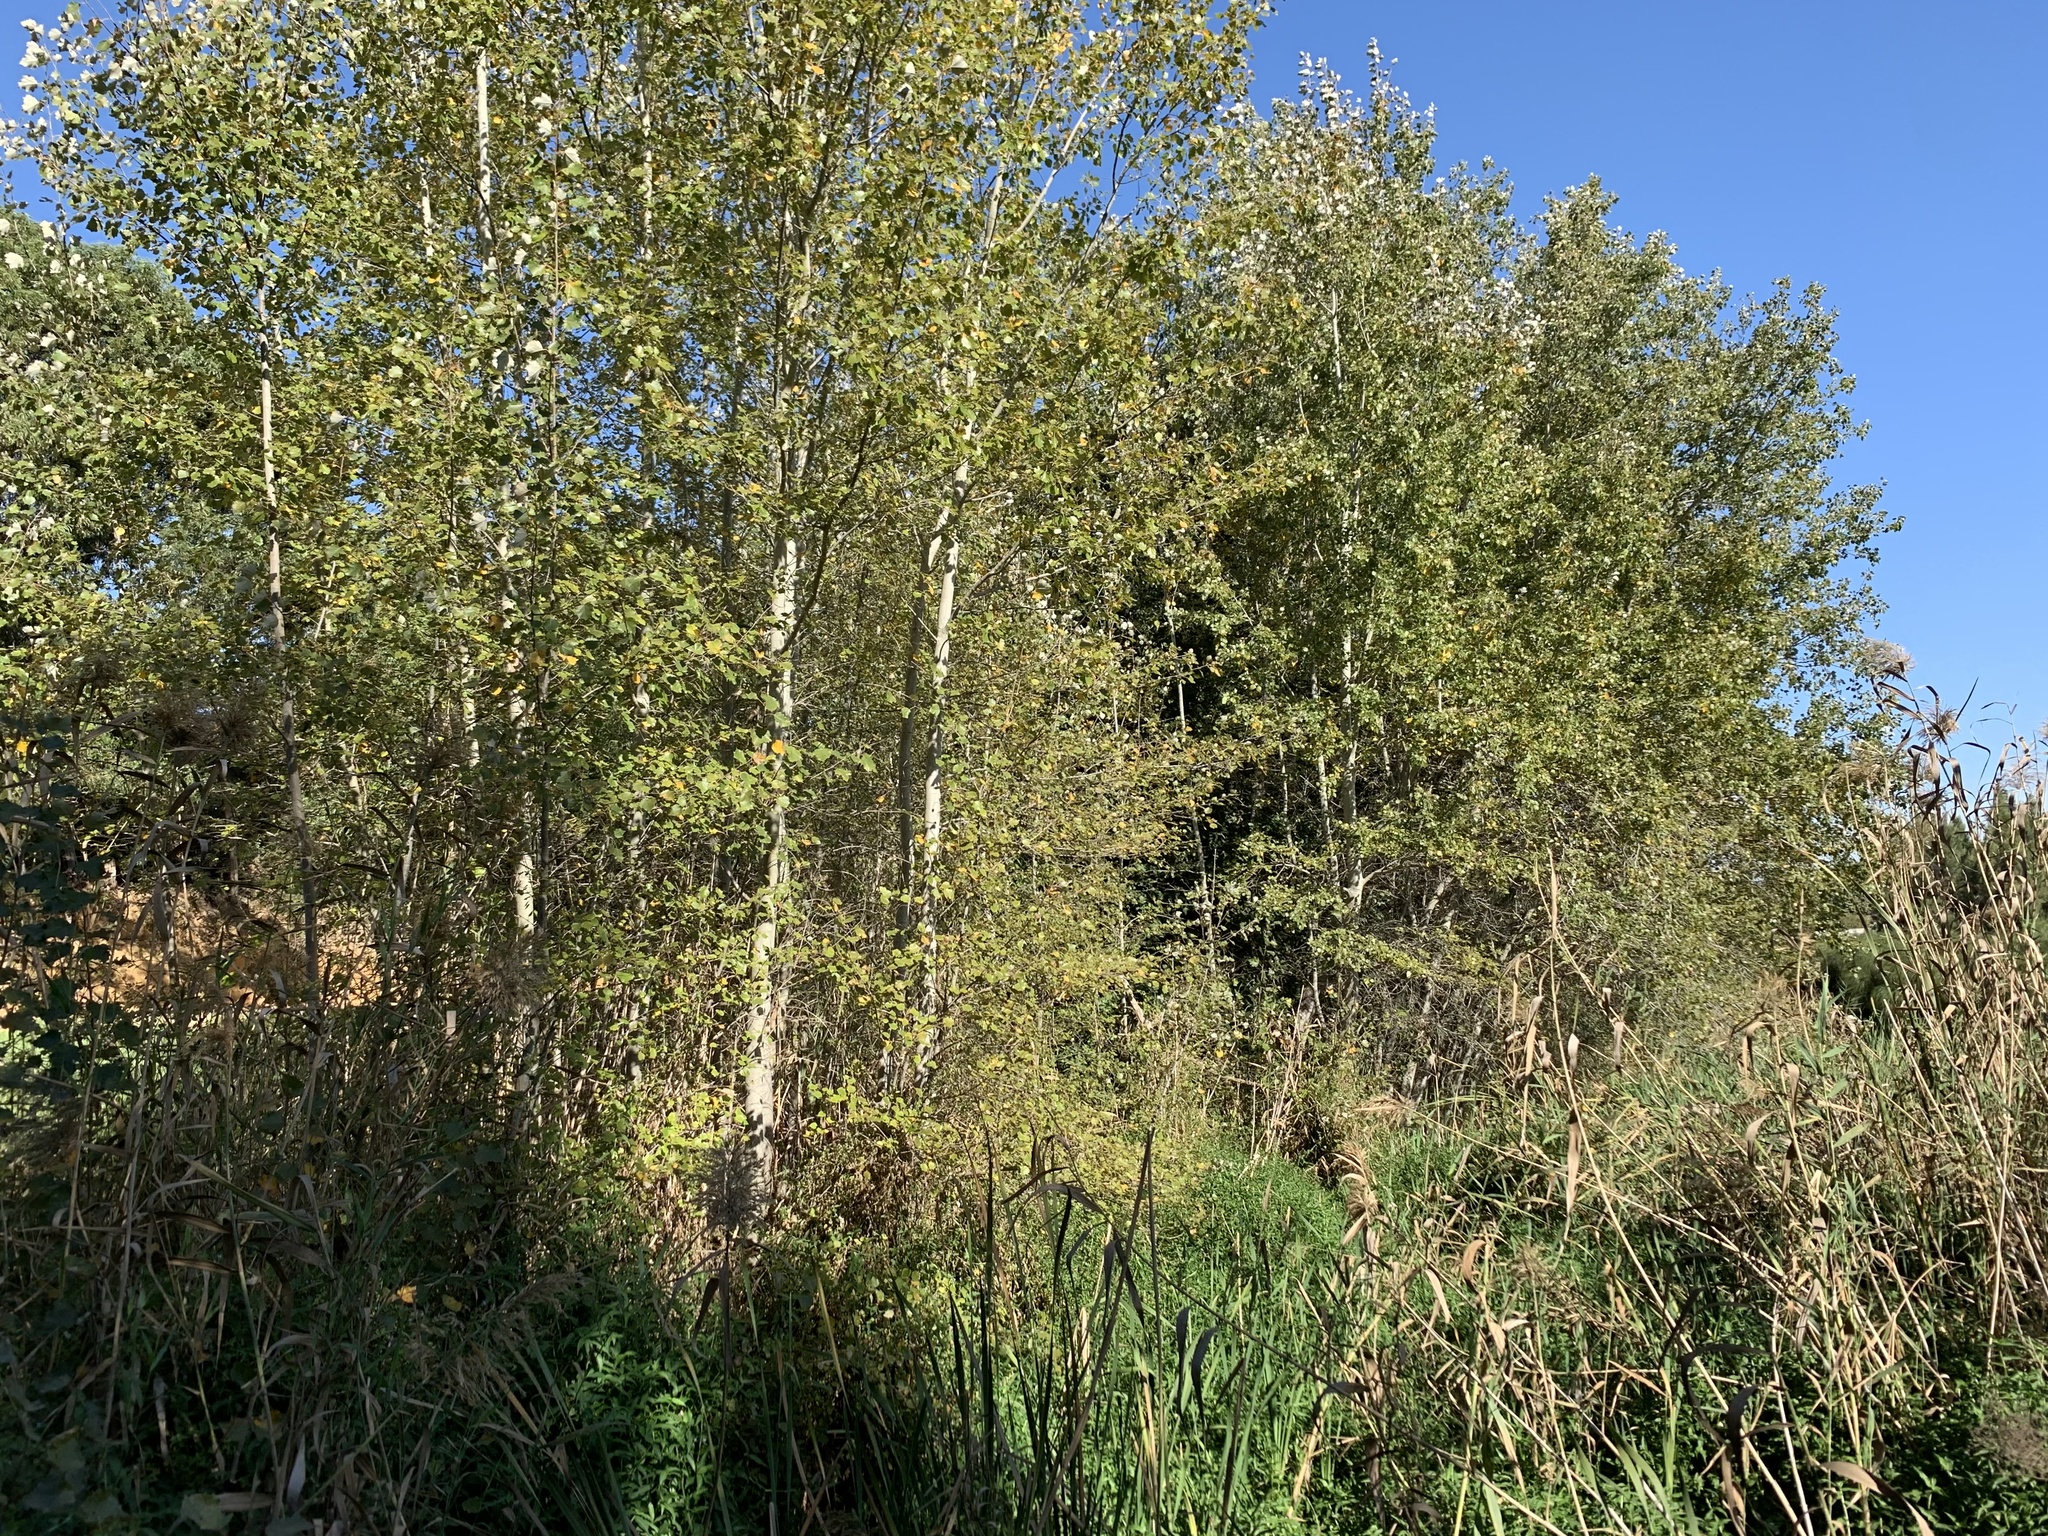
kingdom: Plantae
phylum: Tracheophyta
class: Magnoliopsida
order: Malpighiales
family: Salicaceae
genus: Populus
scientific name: Populus canescens
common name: Gray poplar
